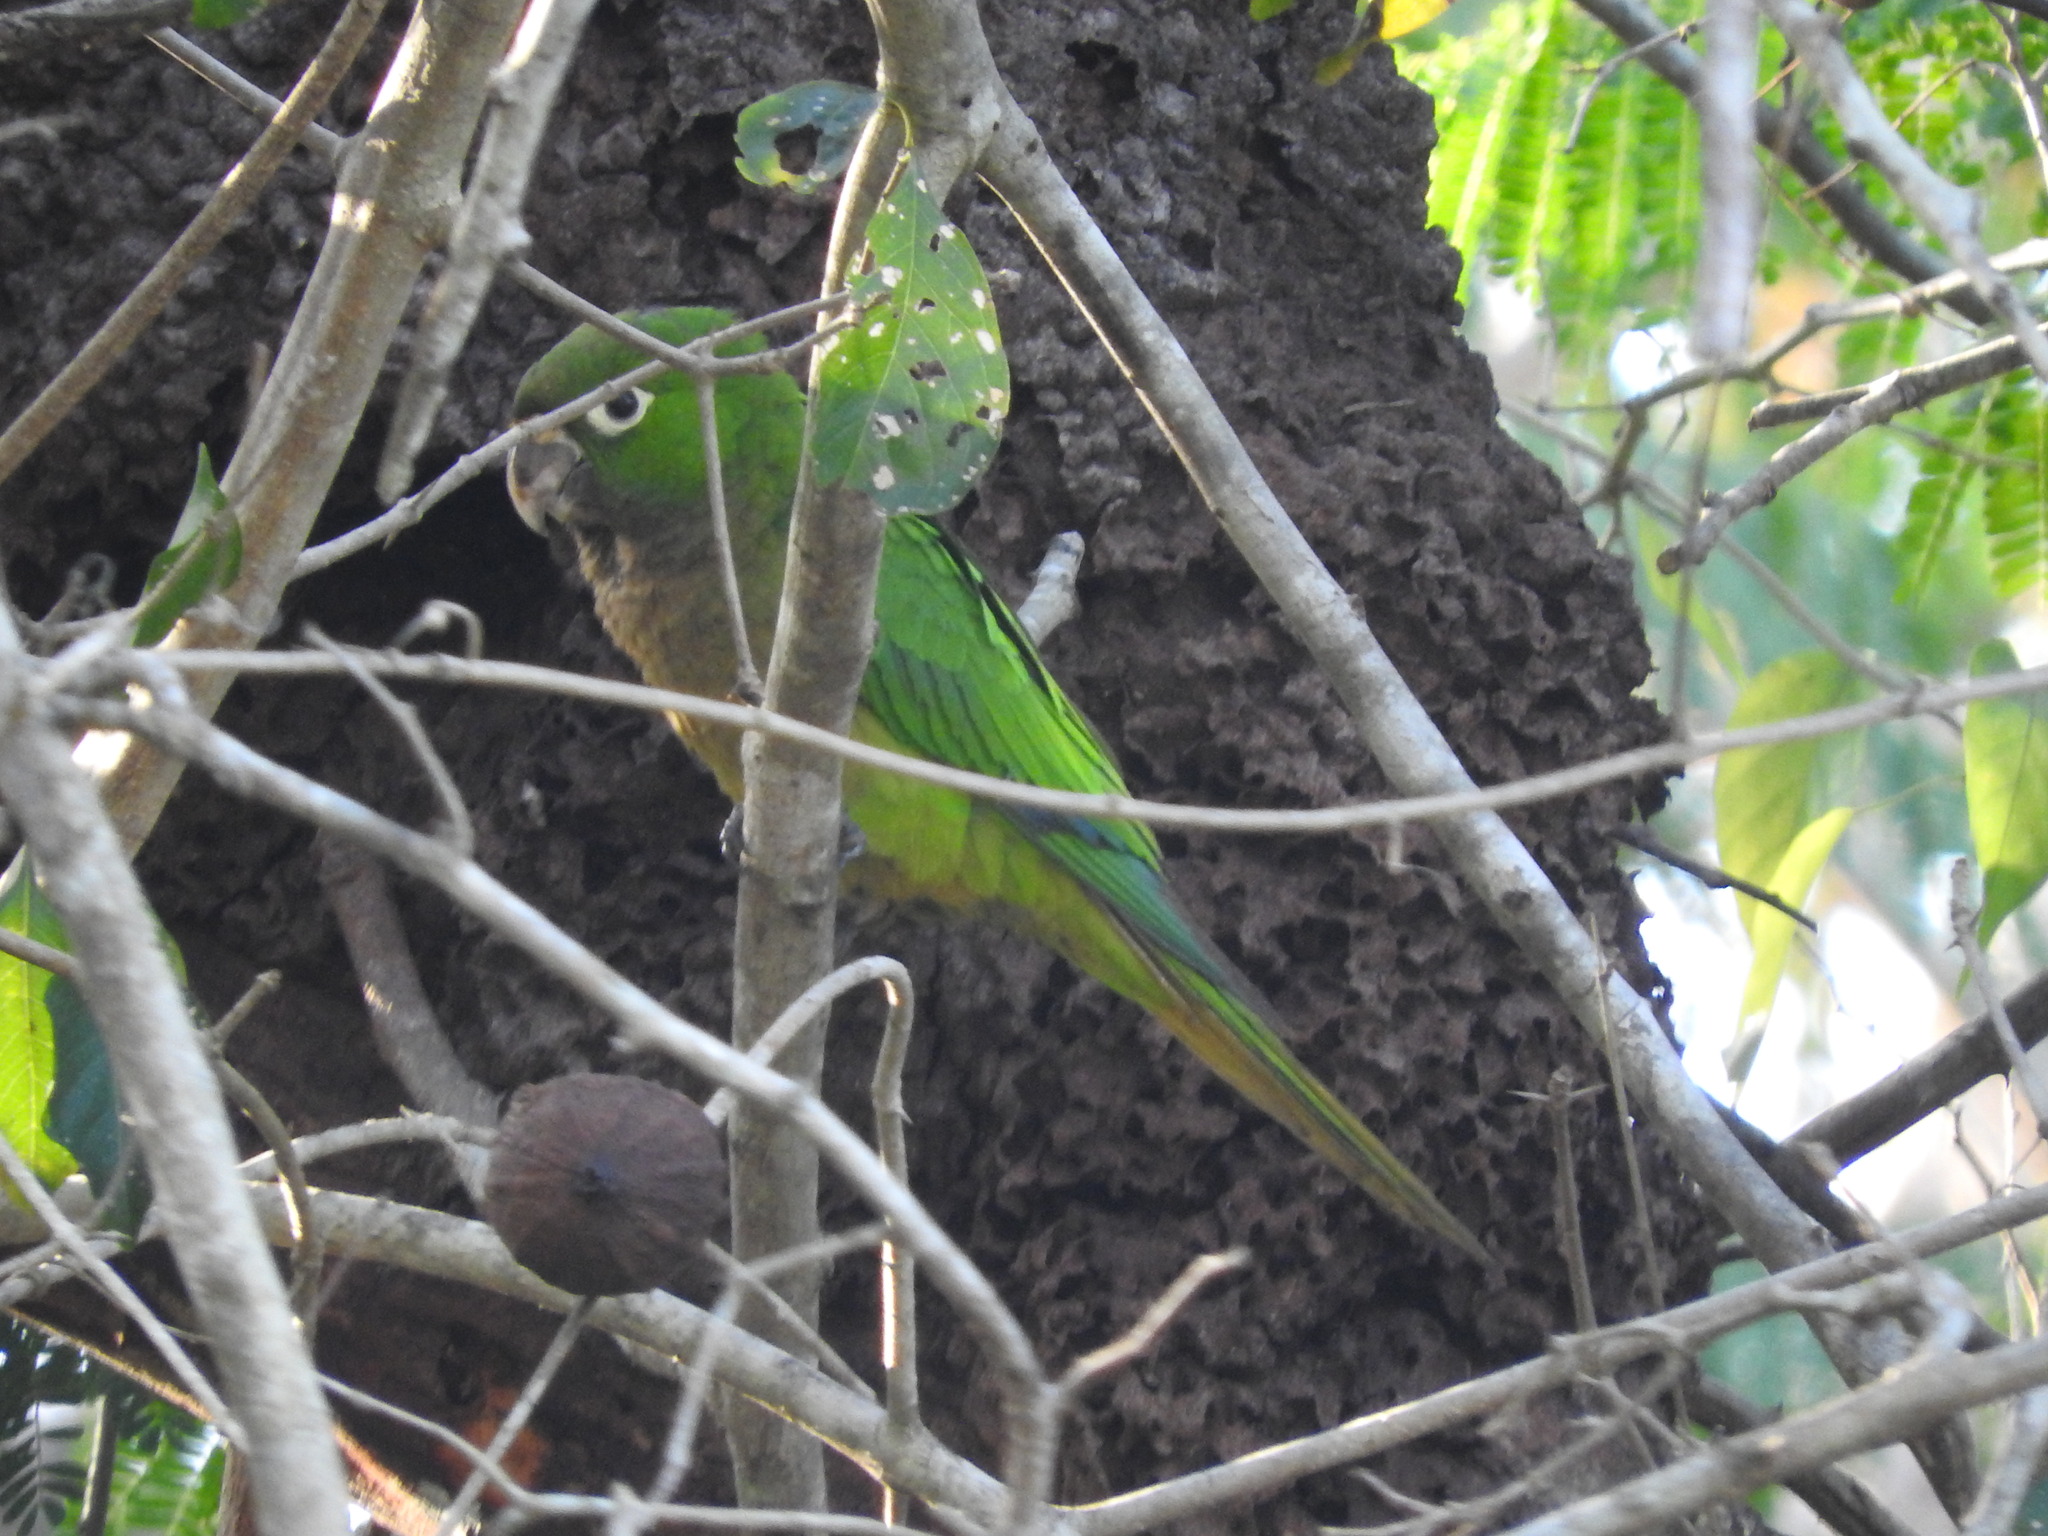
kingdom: Animalia
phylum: Chordata
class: Aves
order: Psittaciformes
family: Psittacidae
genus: Aratinga
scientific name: Aratinga nana
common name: Olive-throated parakeet
